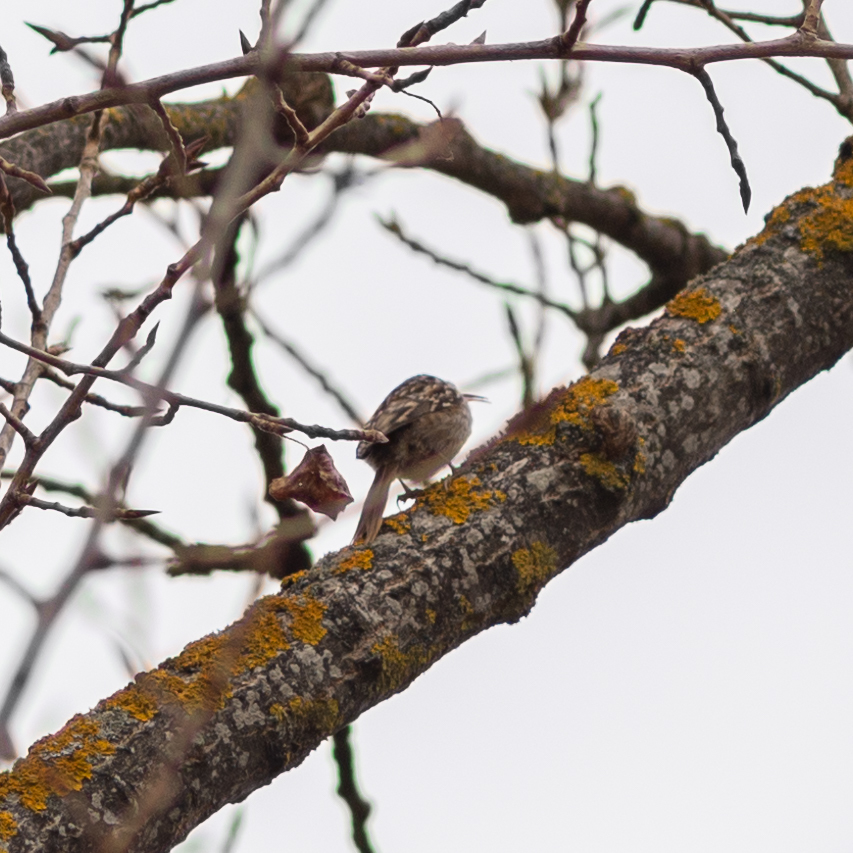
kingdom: Animalia
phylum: Chordata
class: Aves
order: Passeriformes
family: Certhiidae
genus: Certhia
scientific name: Certhia brachydactyla
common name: Short-toed treecreeper
